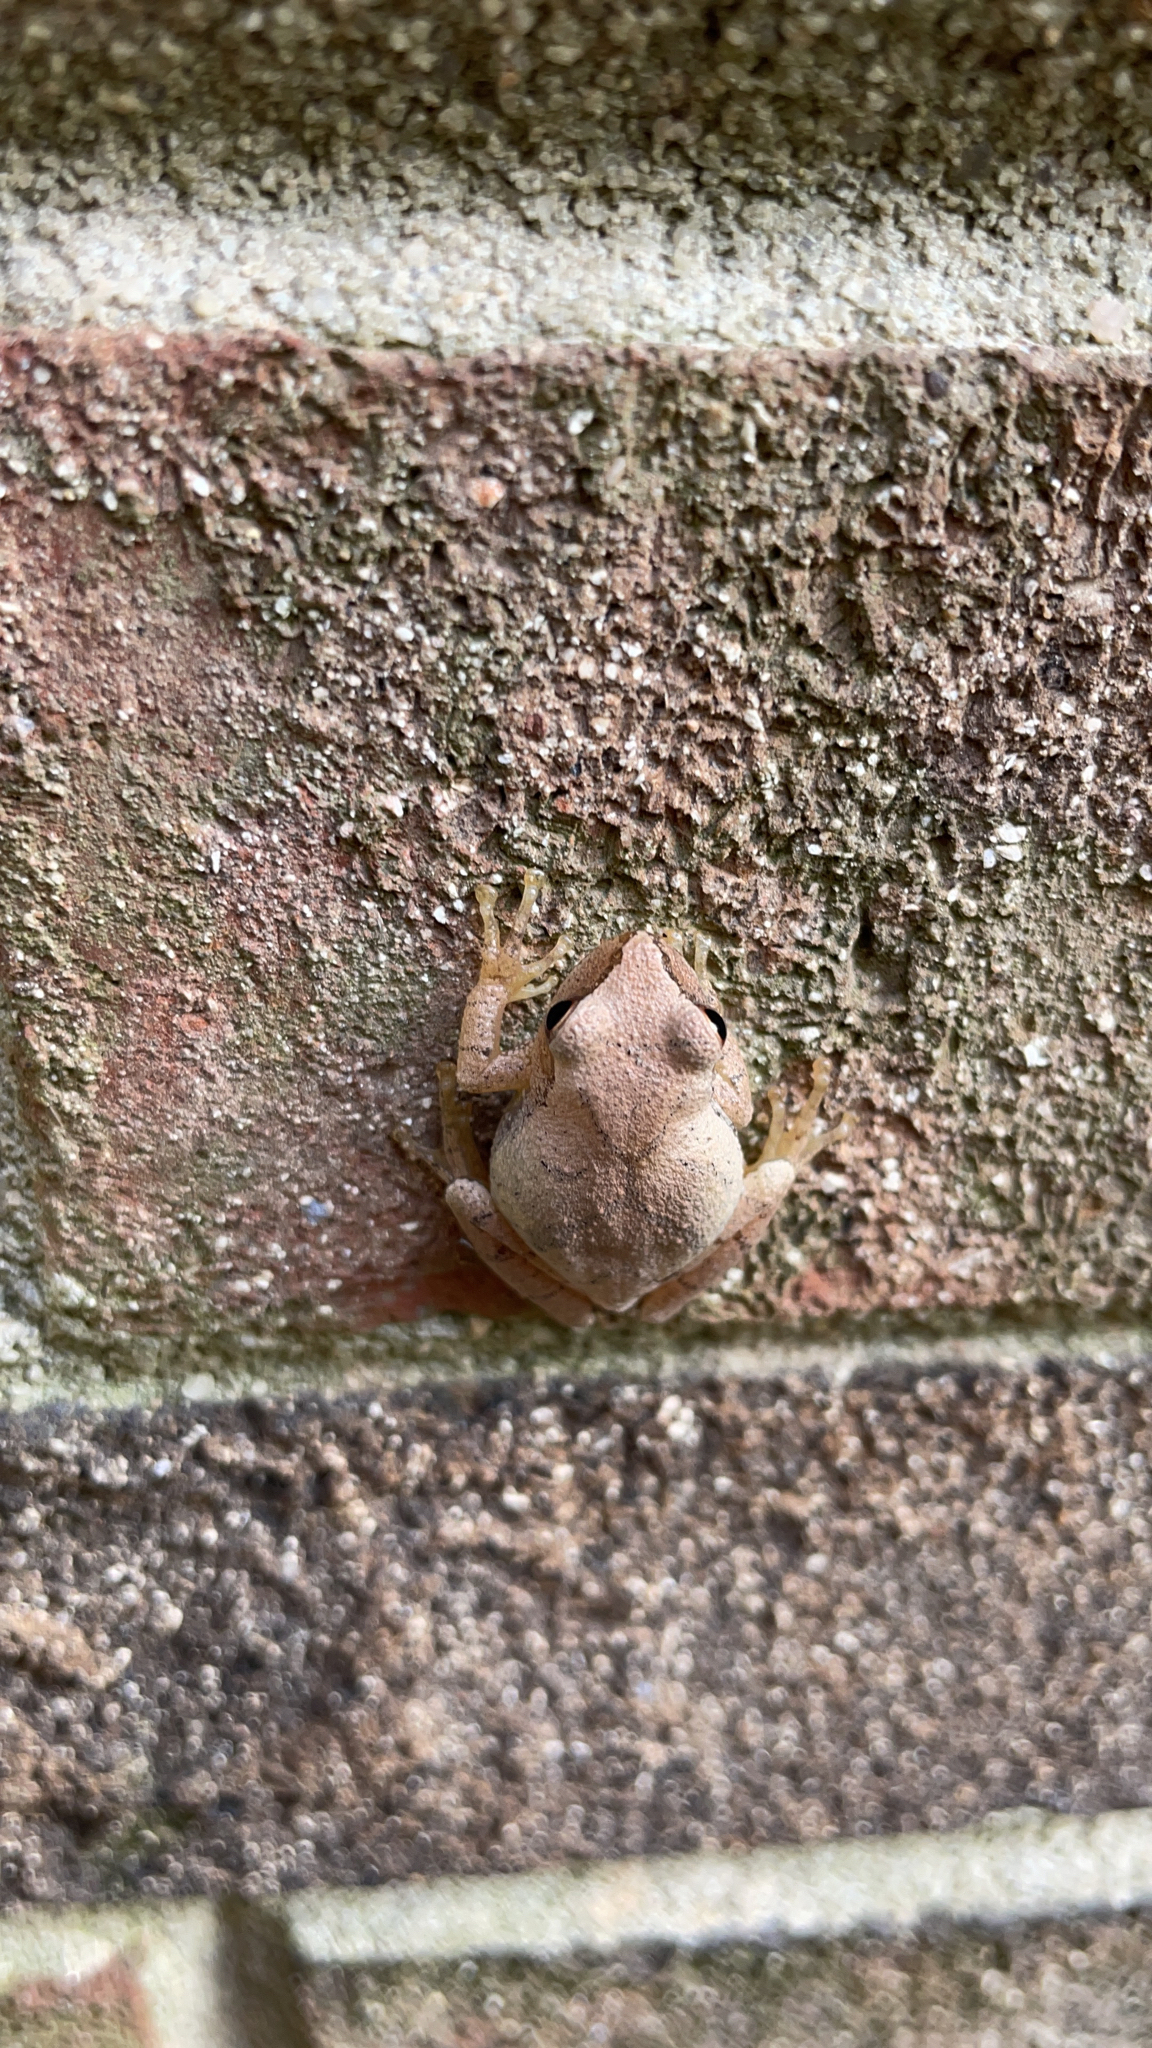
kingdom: Animalia
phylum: Chordata
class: Amphibia
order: Anura
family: Hylidae
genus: Pseudacris
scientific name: Pseudacris crucifer
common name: Spring peeper
